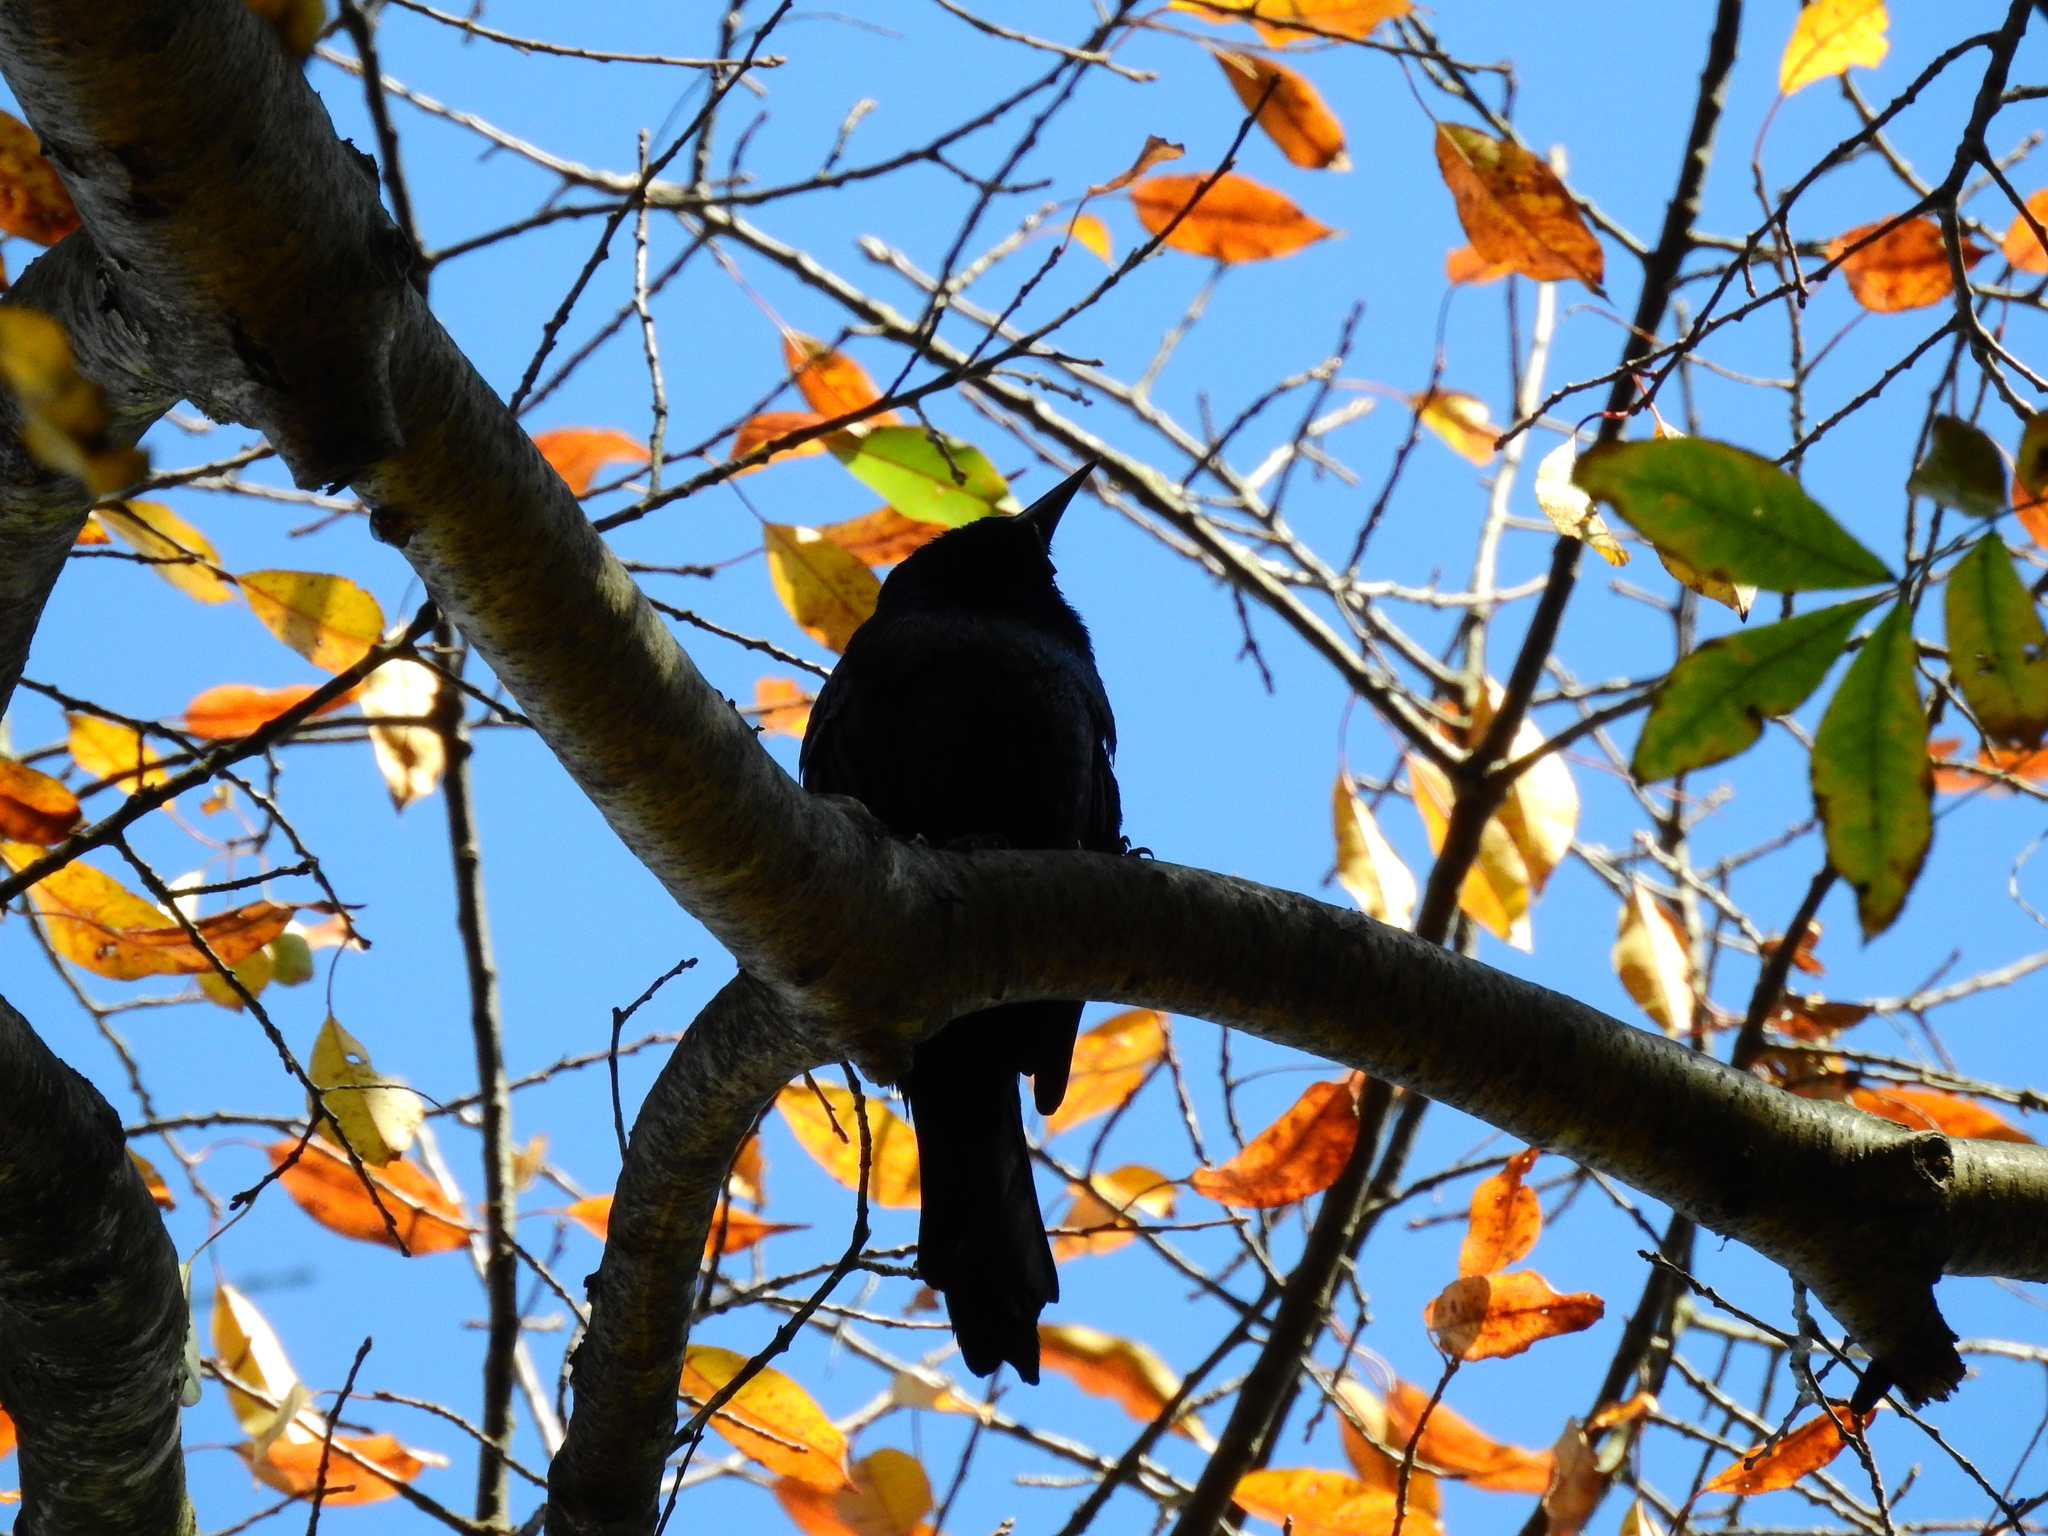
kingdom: Animalia
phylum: Chordata
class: Aves
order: Passeriformes
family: Icteridae
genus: Quiscalus
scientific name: Quiscalus quiscula
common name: Common grackle
